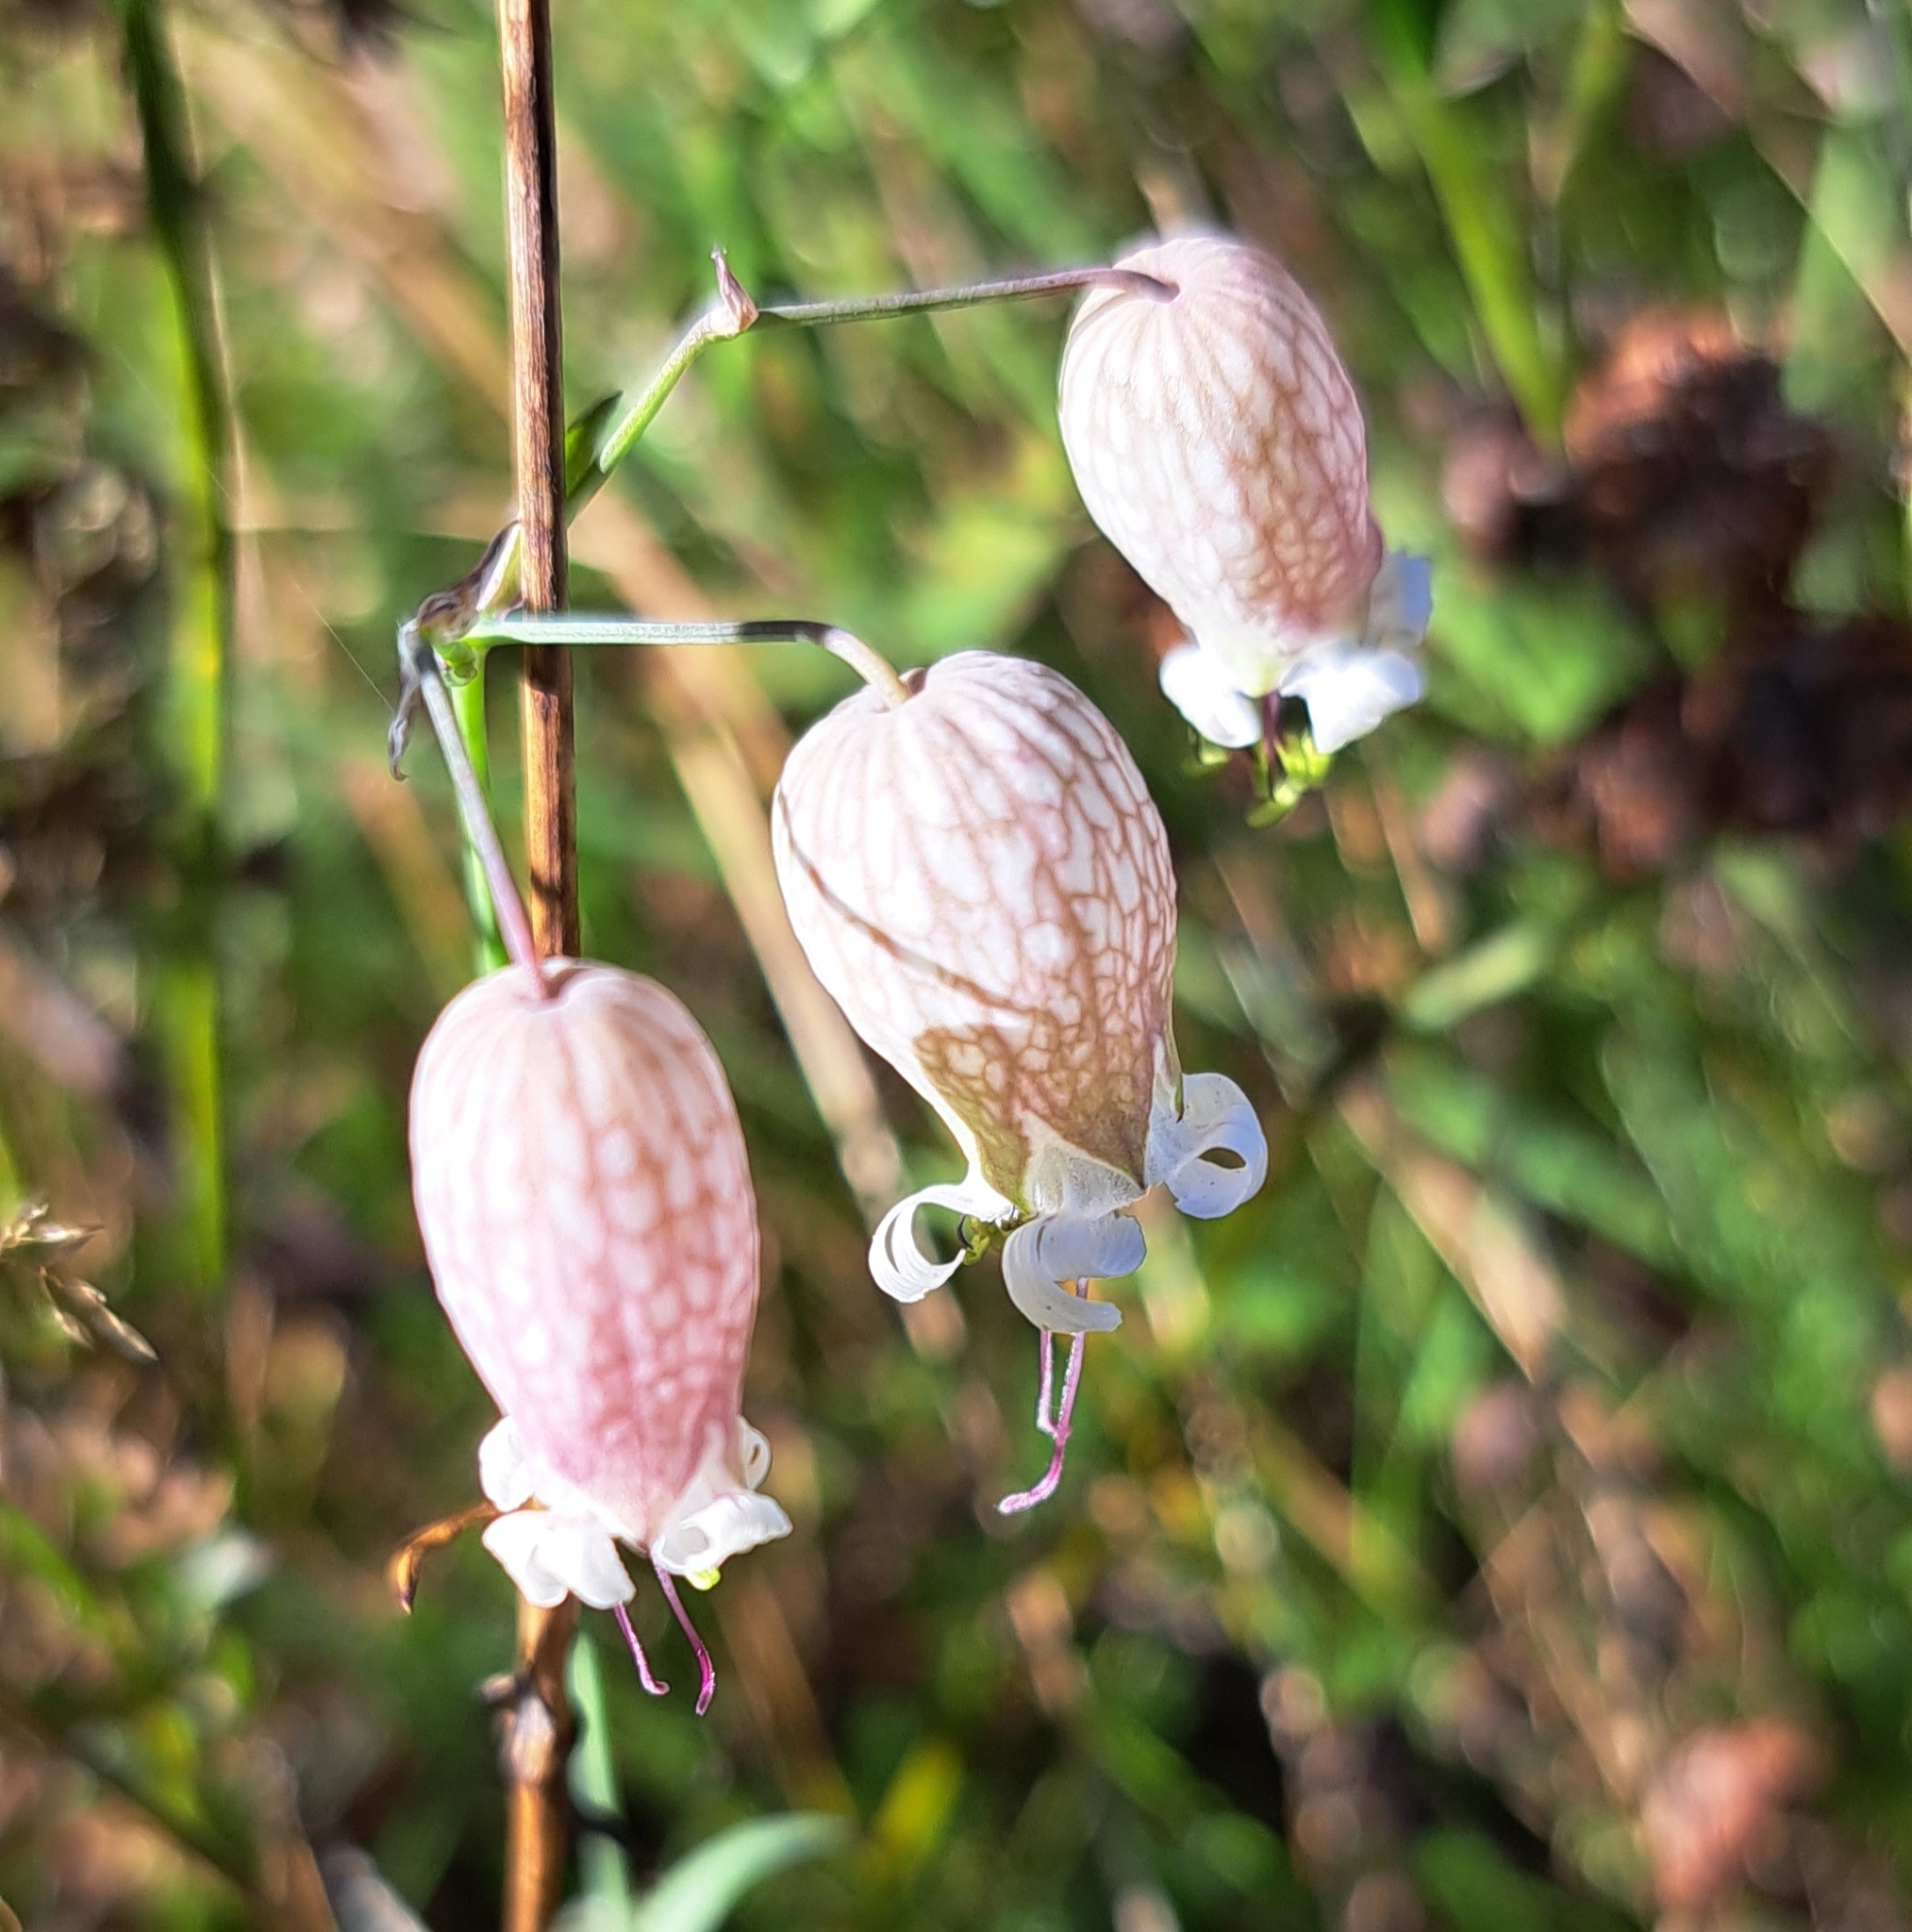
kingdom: Plantae
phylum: Tracheophyta
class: Magnoliopsida
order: Caryophyllales
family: Caryophyllaceae
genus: Silene
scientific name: Silene vulgaris
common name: Bladder campion
